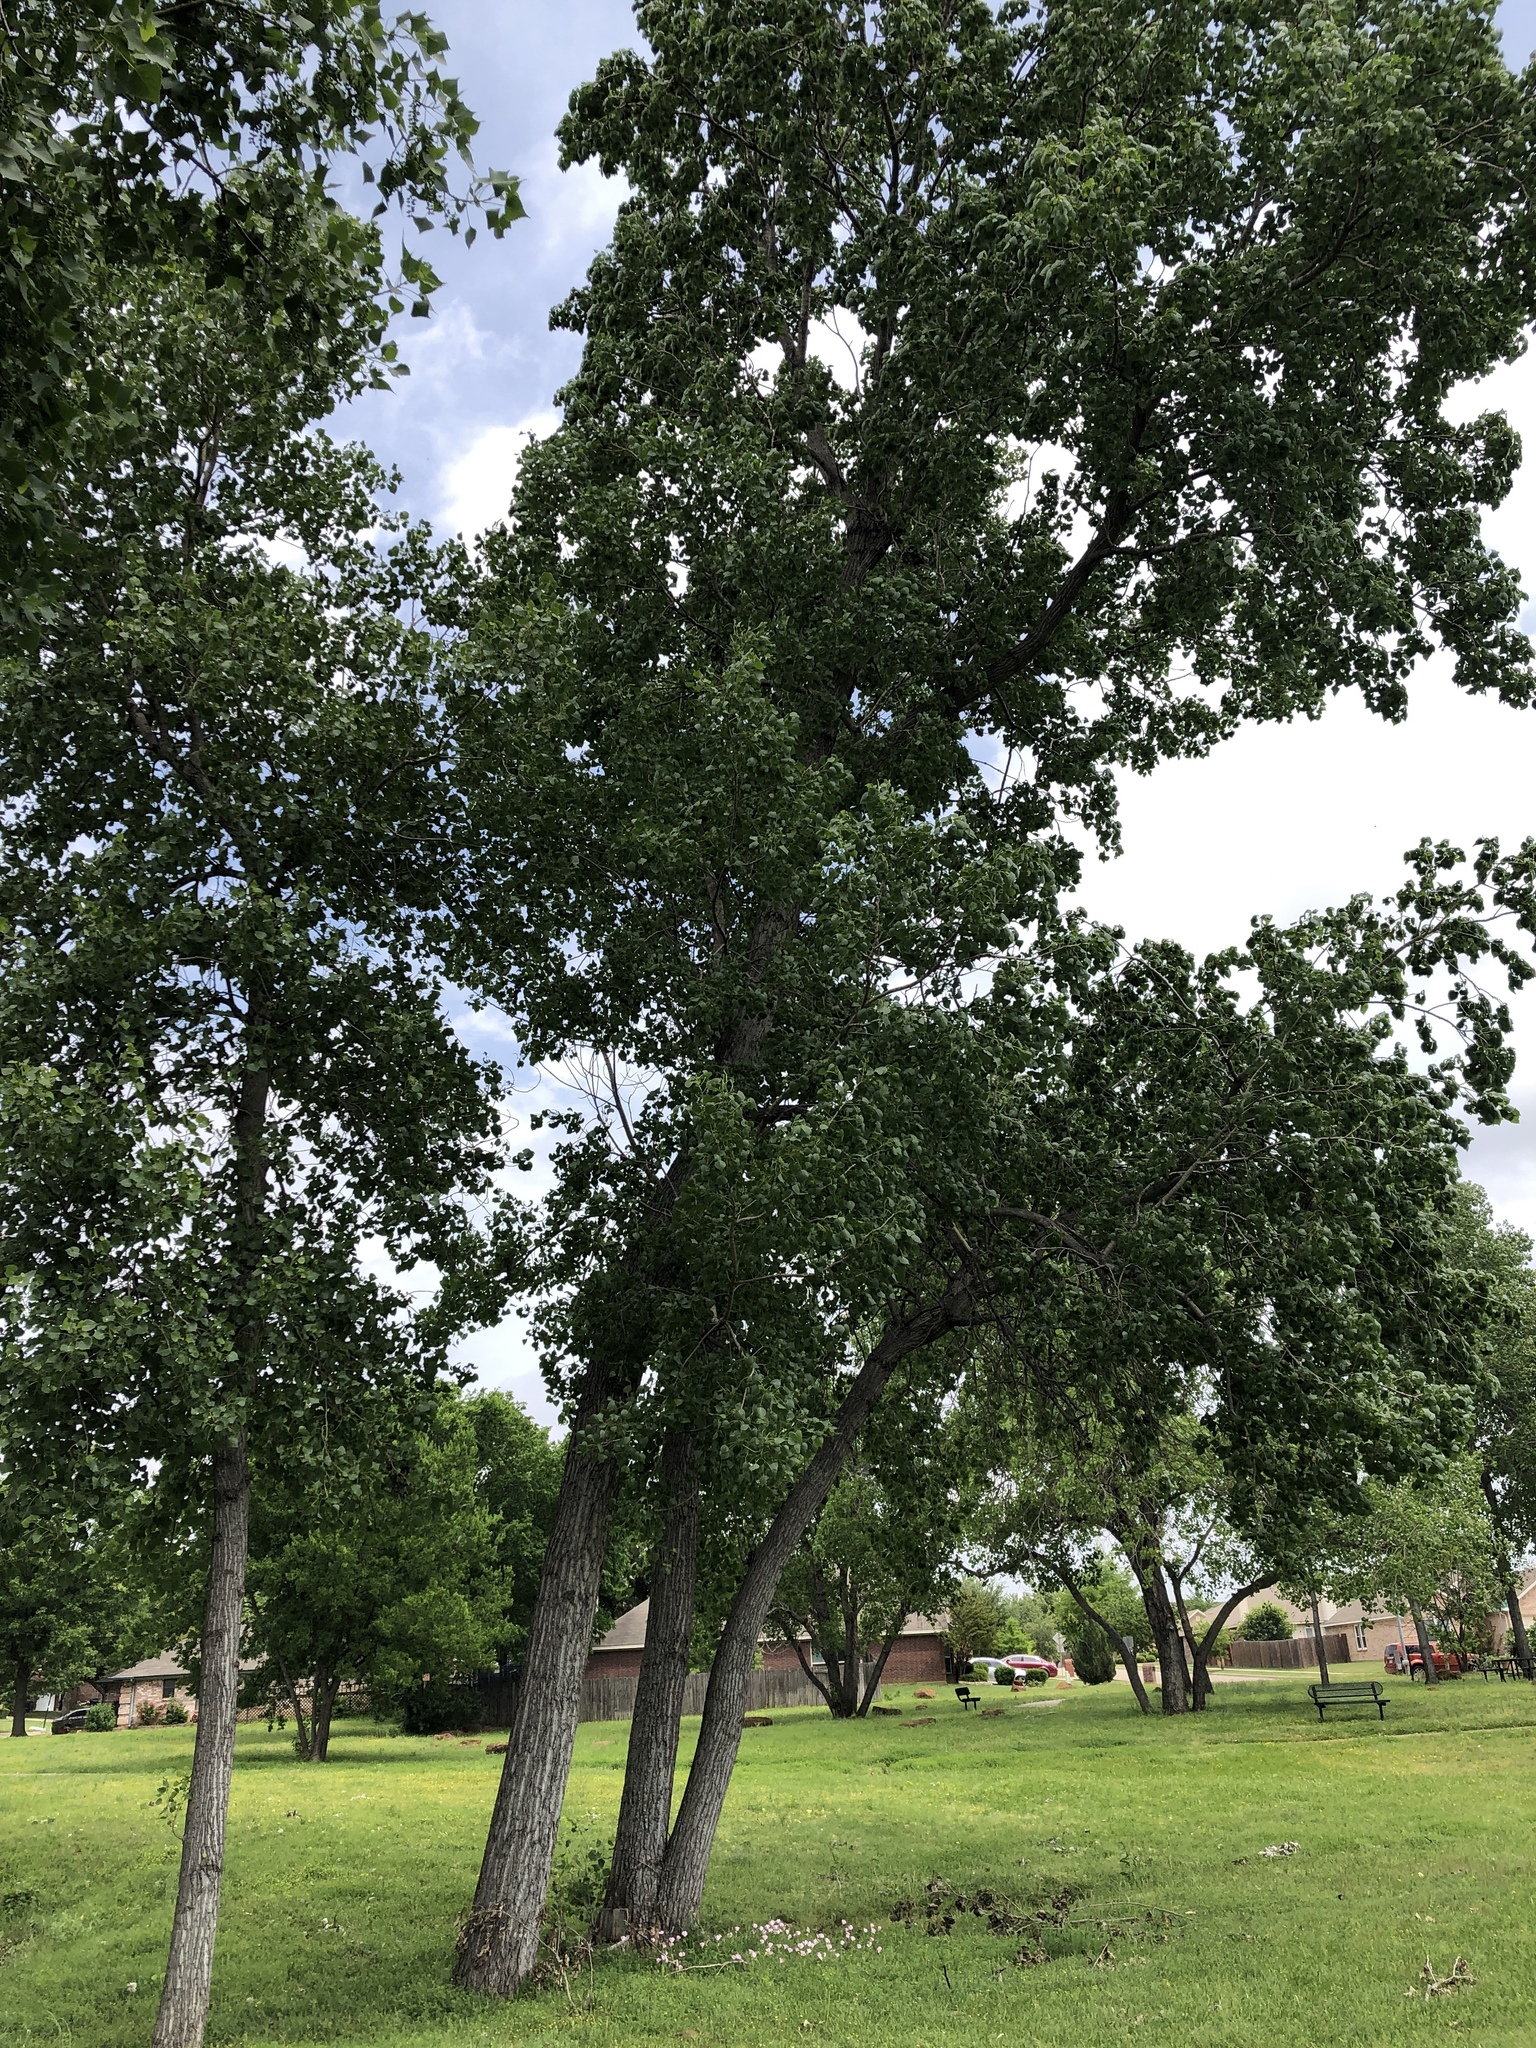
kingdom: Plantae
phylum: Tracheophyta
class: Magnoliopsida
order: Malpighiales
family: Salicaceae
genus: Populus
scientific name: Populus deltoides
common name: Eastern cottonwood
